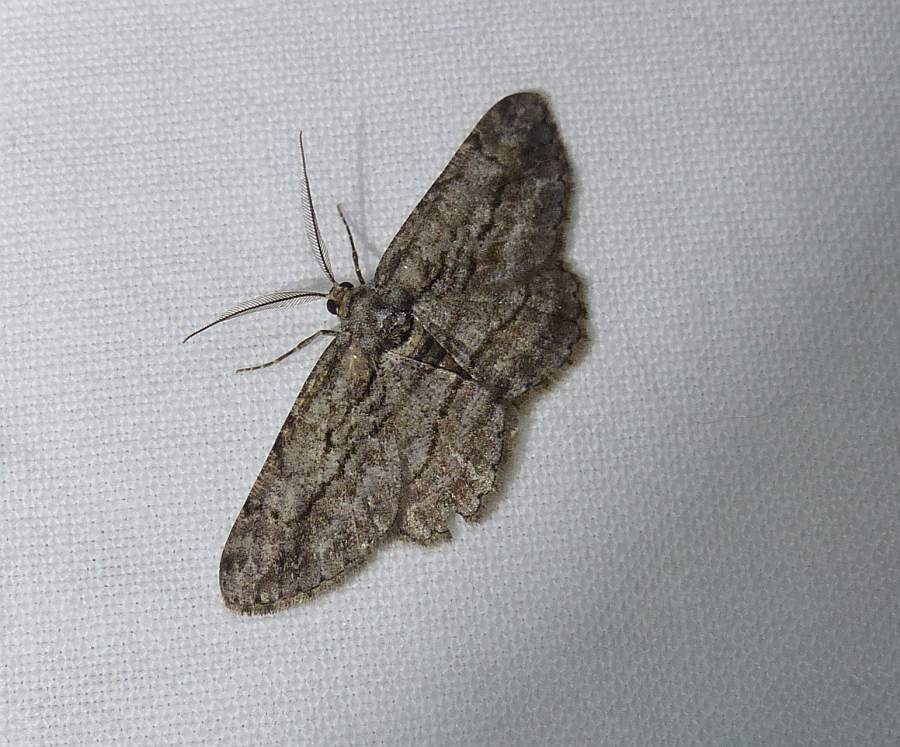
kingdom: Animalia
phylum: Arthropoda
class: Insecta
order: Lepidoptera
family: Geometridae
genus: Anavitrinella
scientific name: Anavitrinella pampinaria
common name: Common gray
